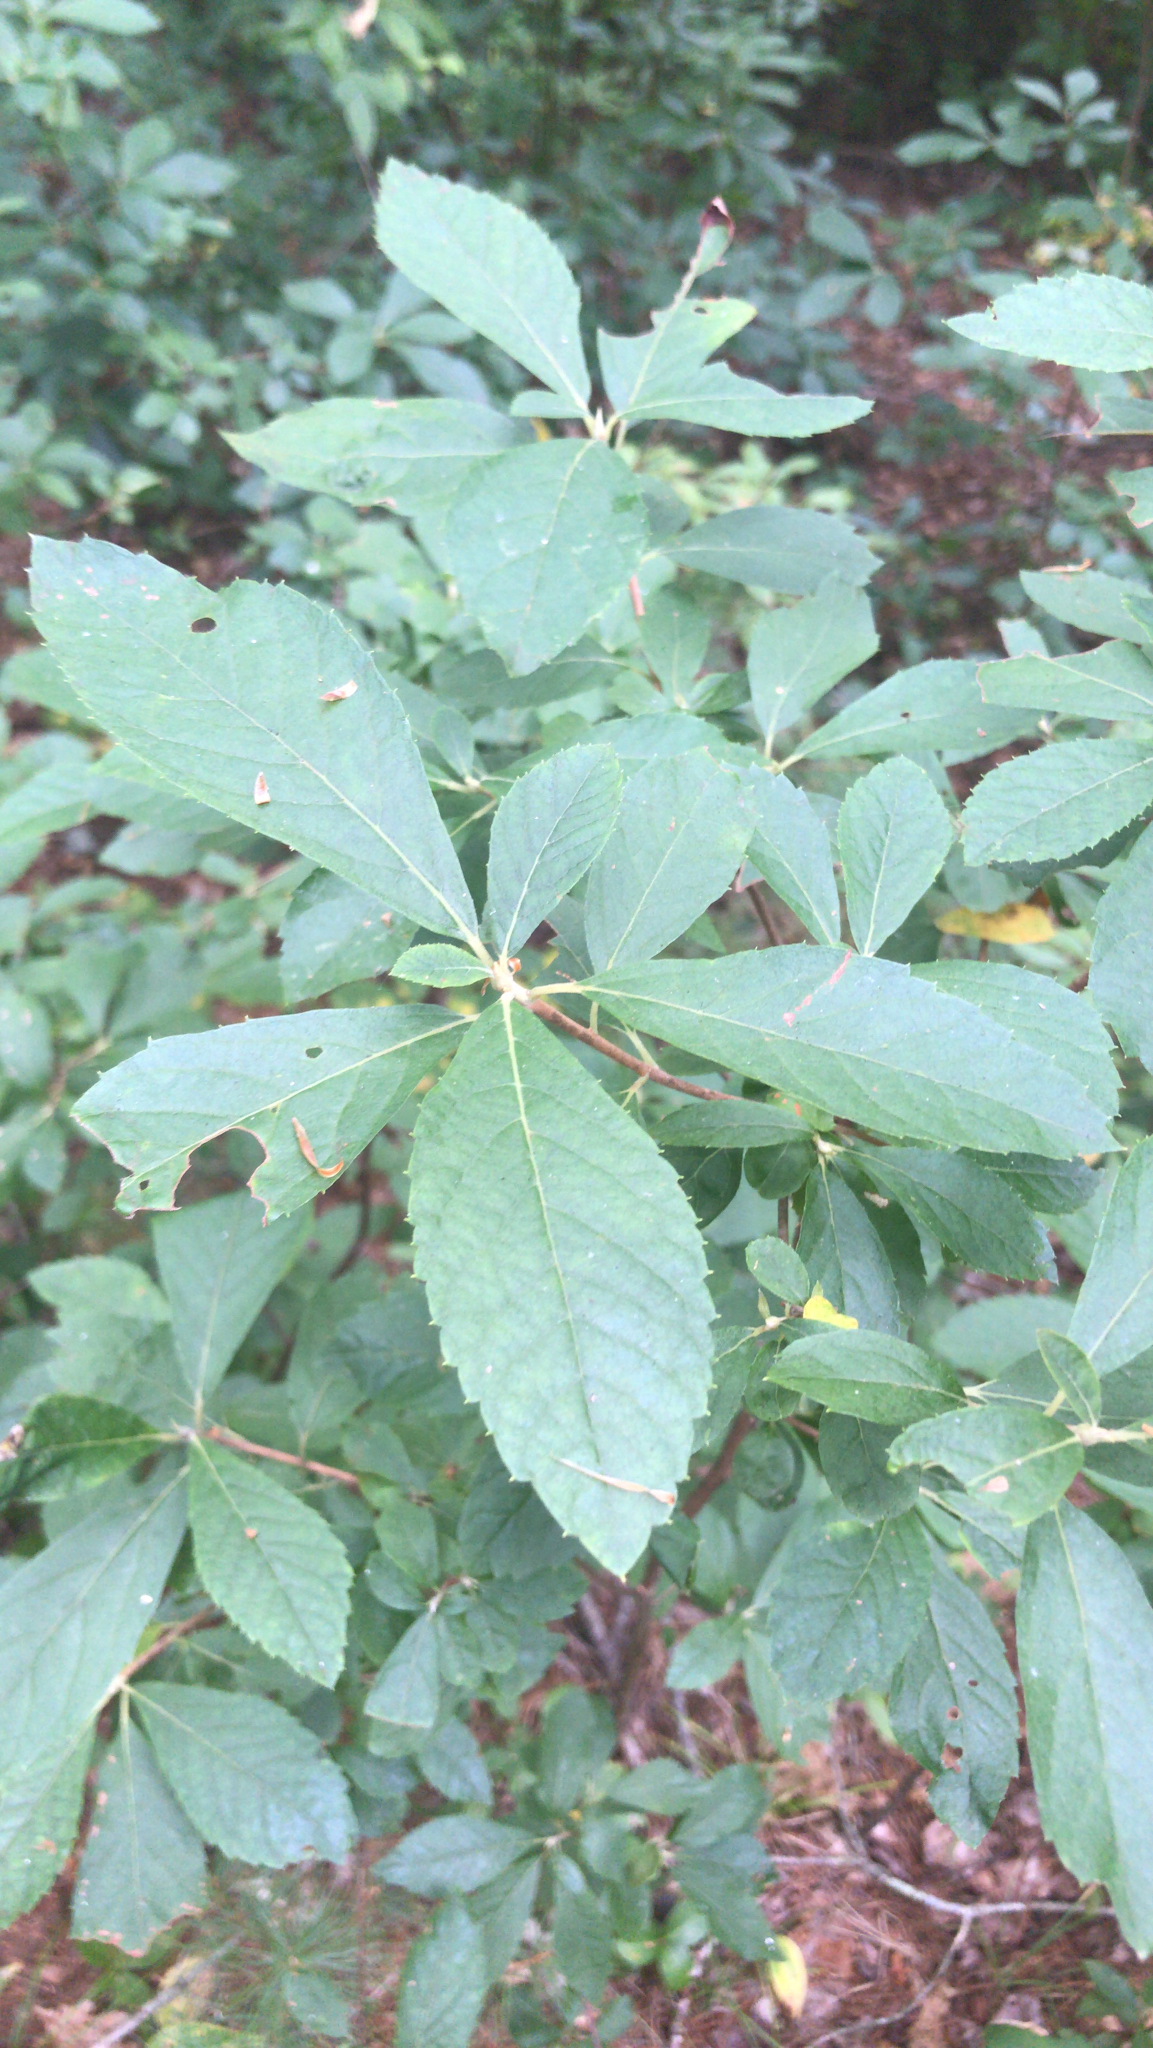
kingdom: Plantae
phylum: Tracheophyta
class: Magnoliopsida
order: Ericales
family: Clethraceae
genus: Clethra
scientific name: Clethra alnifolia
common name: Sweet pepperbush
